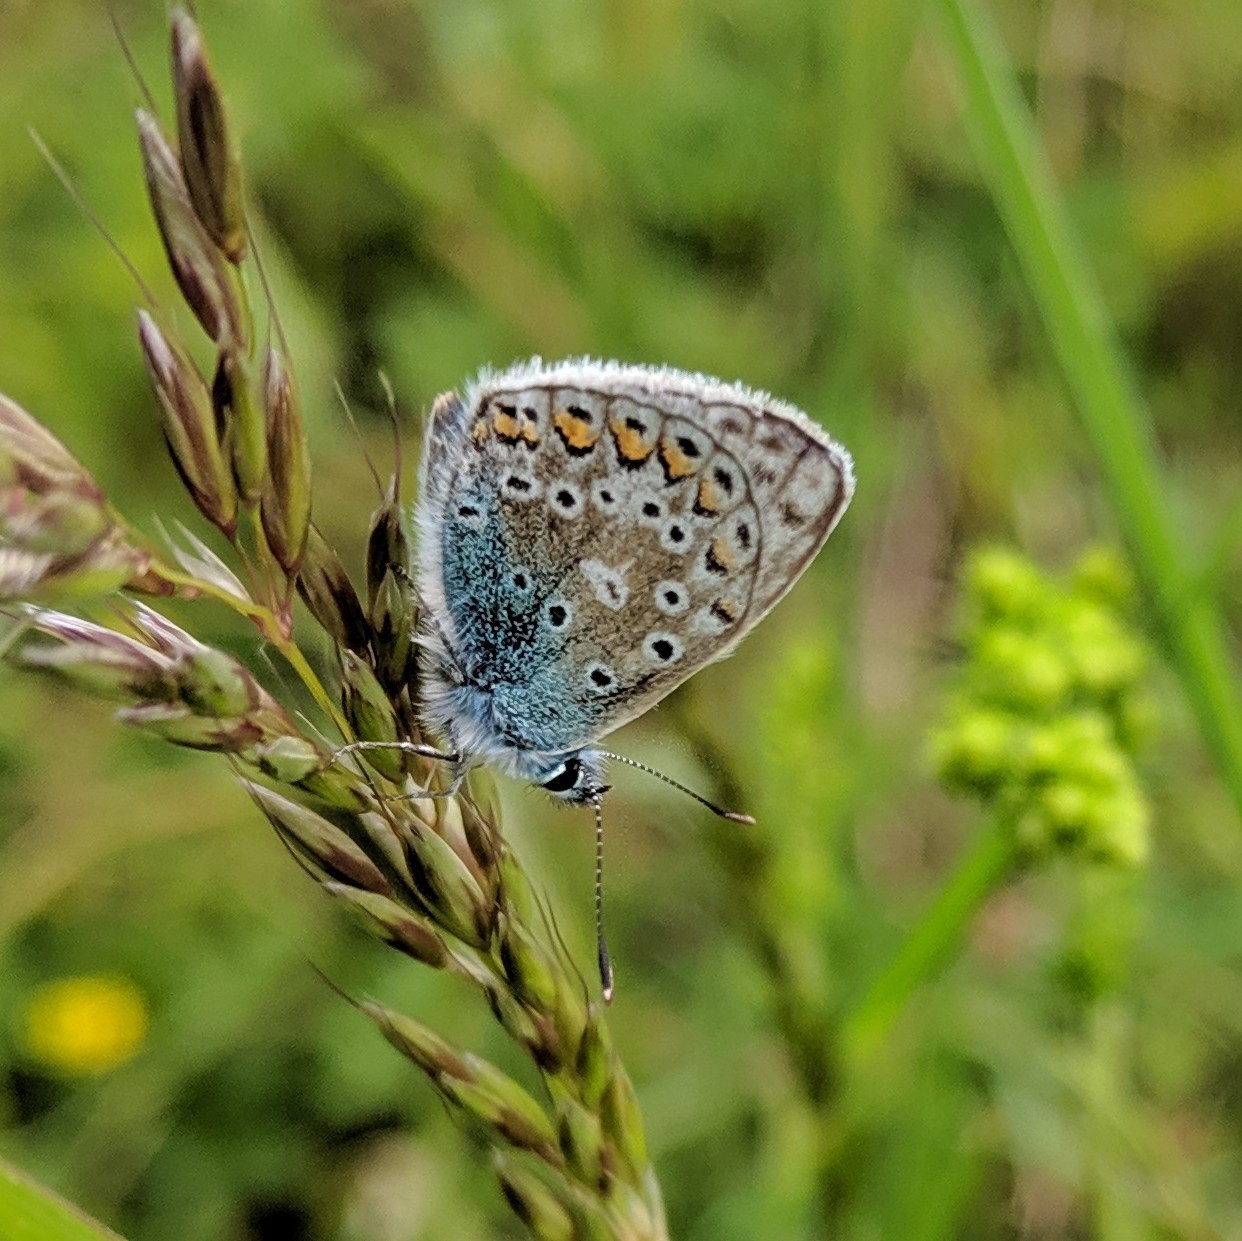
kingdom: Animalia
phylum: Arthropoda
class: Insecta
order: Lepidoptera
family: Lycaenidae
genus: Polyommatus
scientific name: Polyommatus icarus
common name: Common blue
